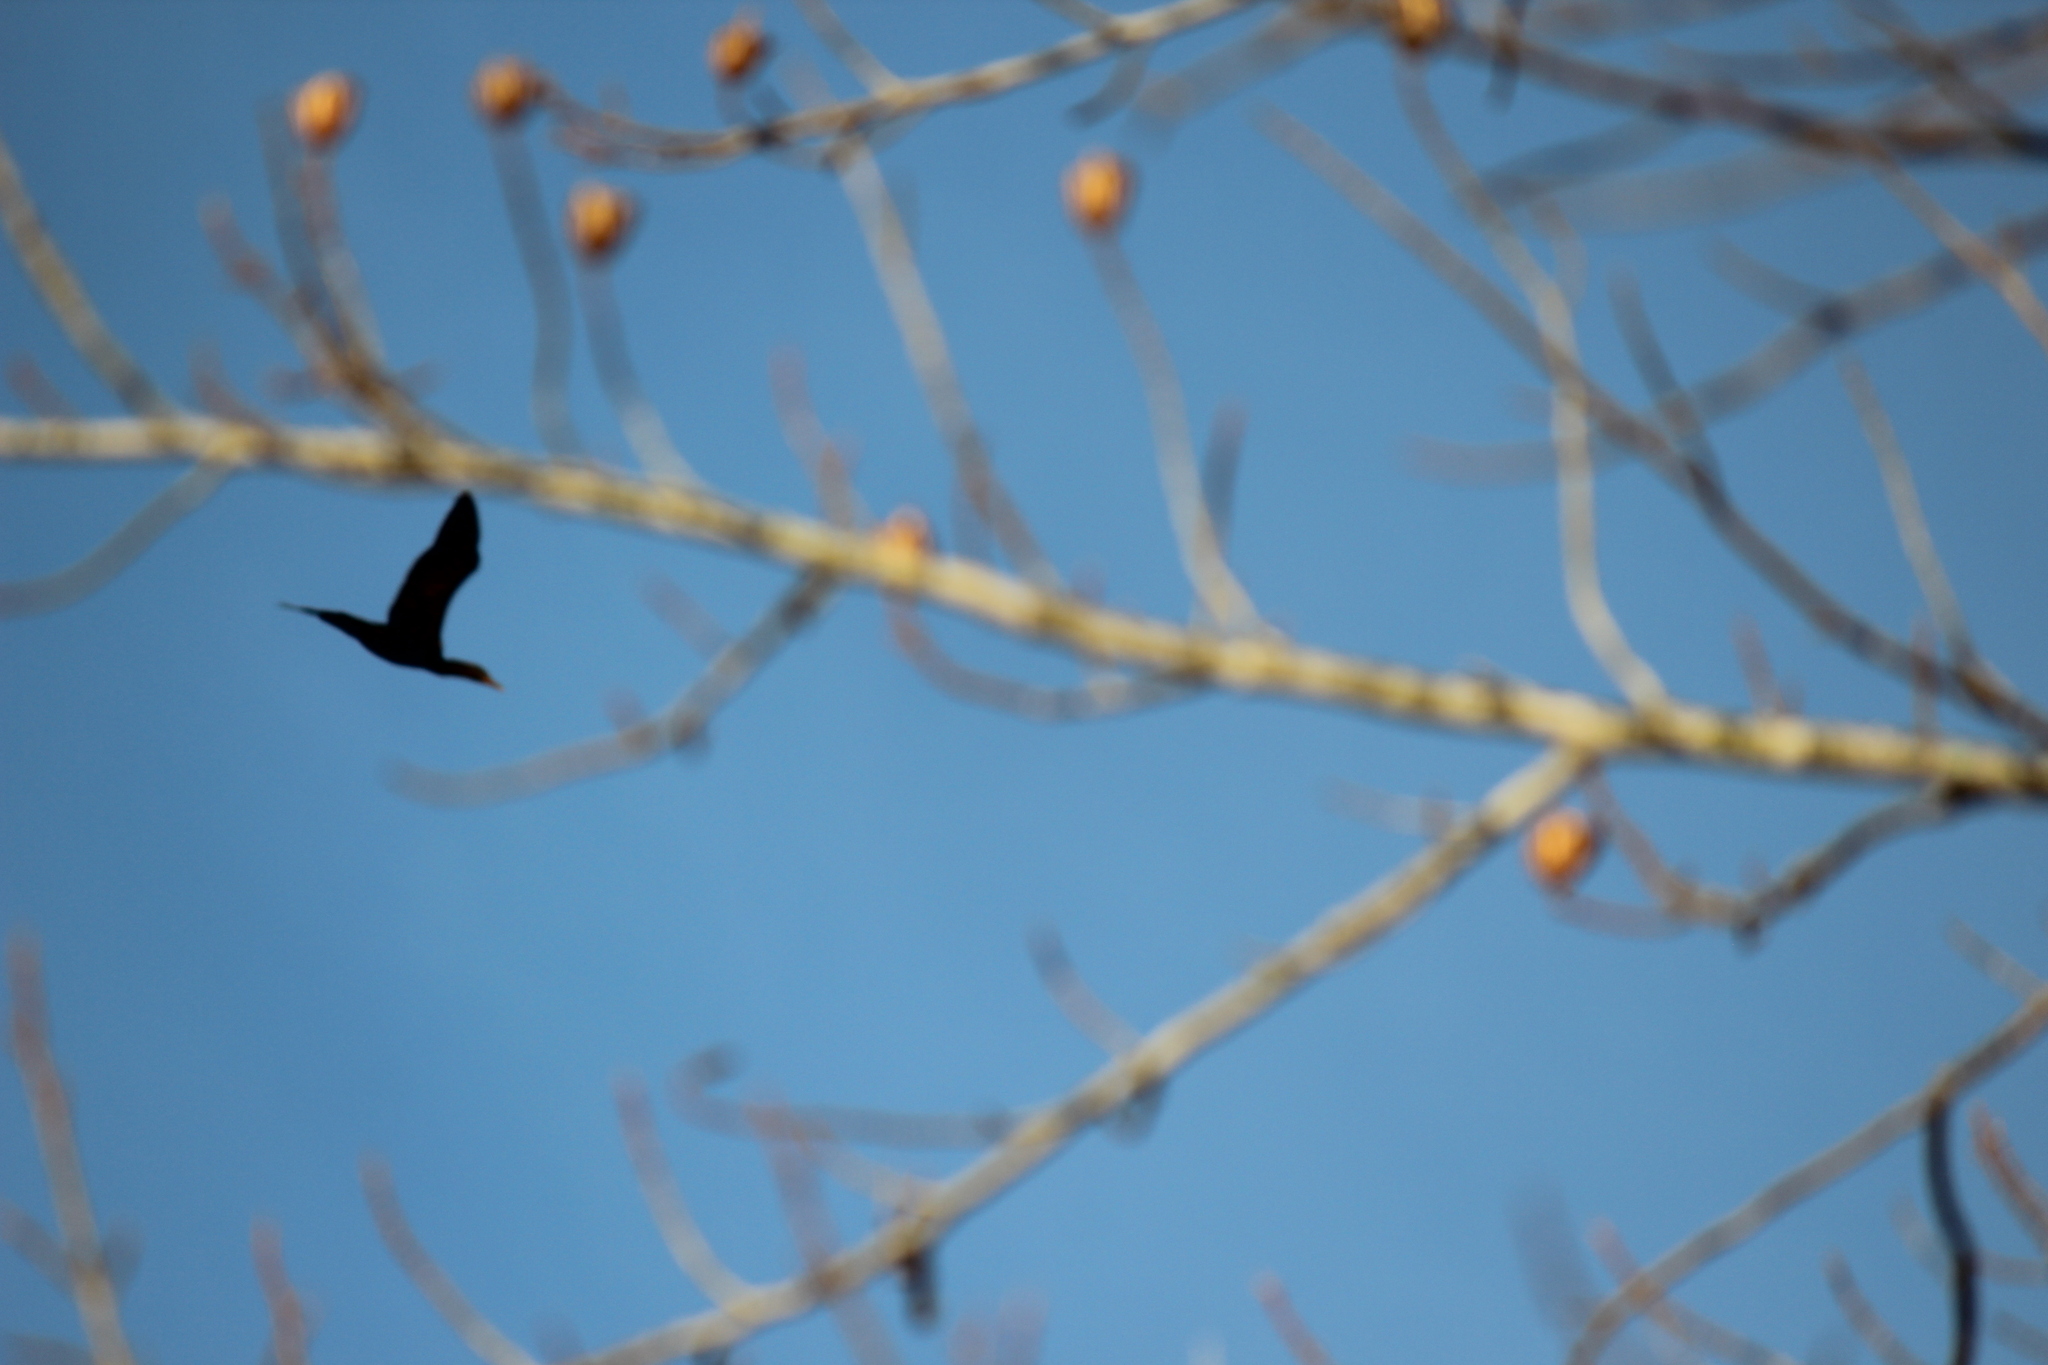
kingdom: Animalia
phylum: Chordata
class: Aves
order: Suliformes
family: Phalacrocoracidae
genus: Phalacrocorax
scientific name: Phalacrocorax auritus
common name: Double-crested cormorant
